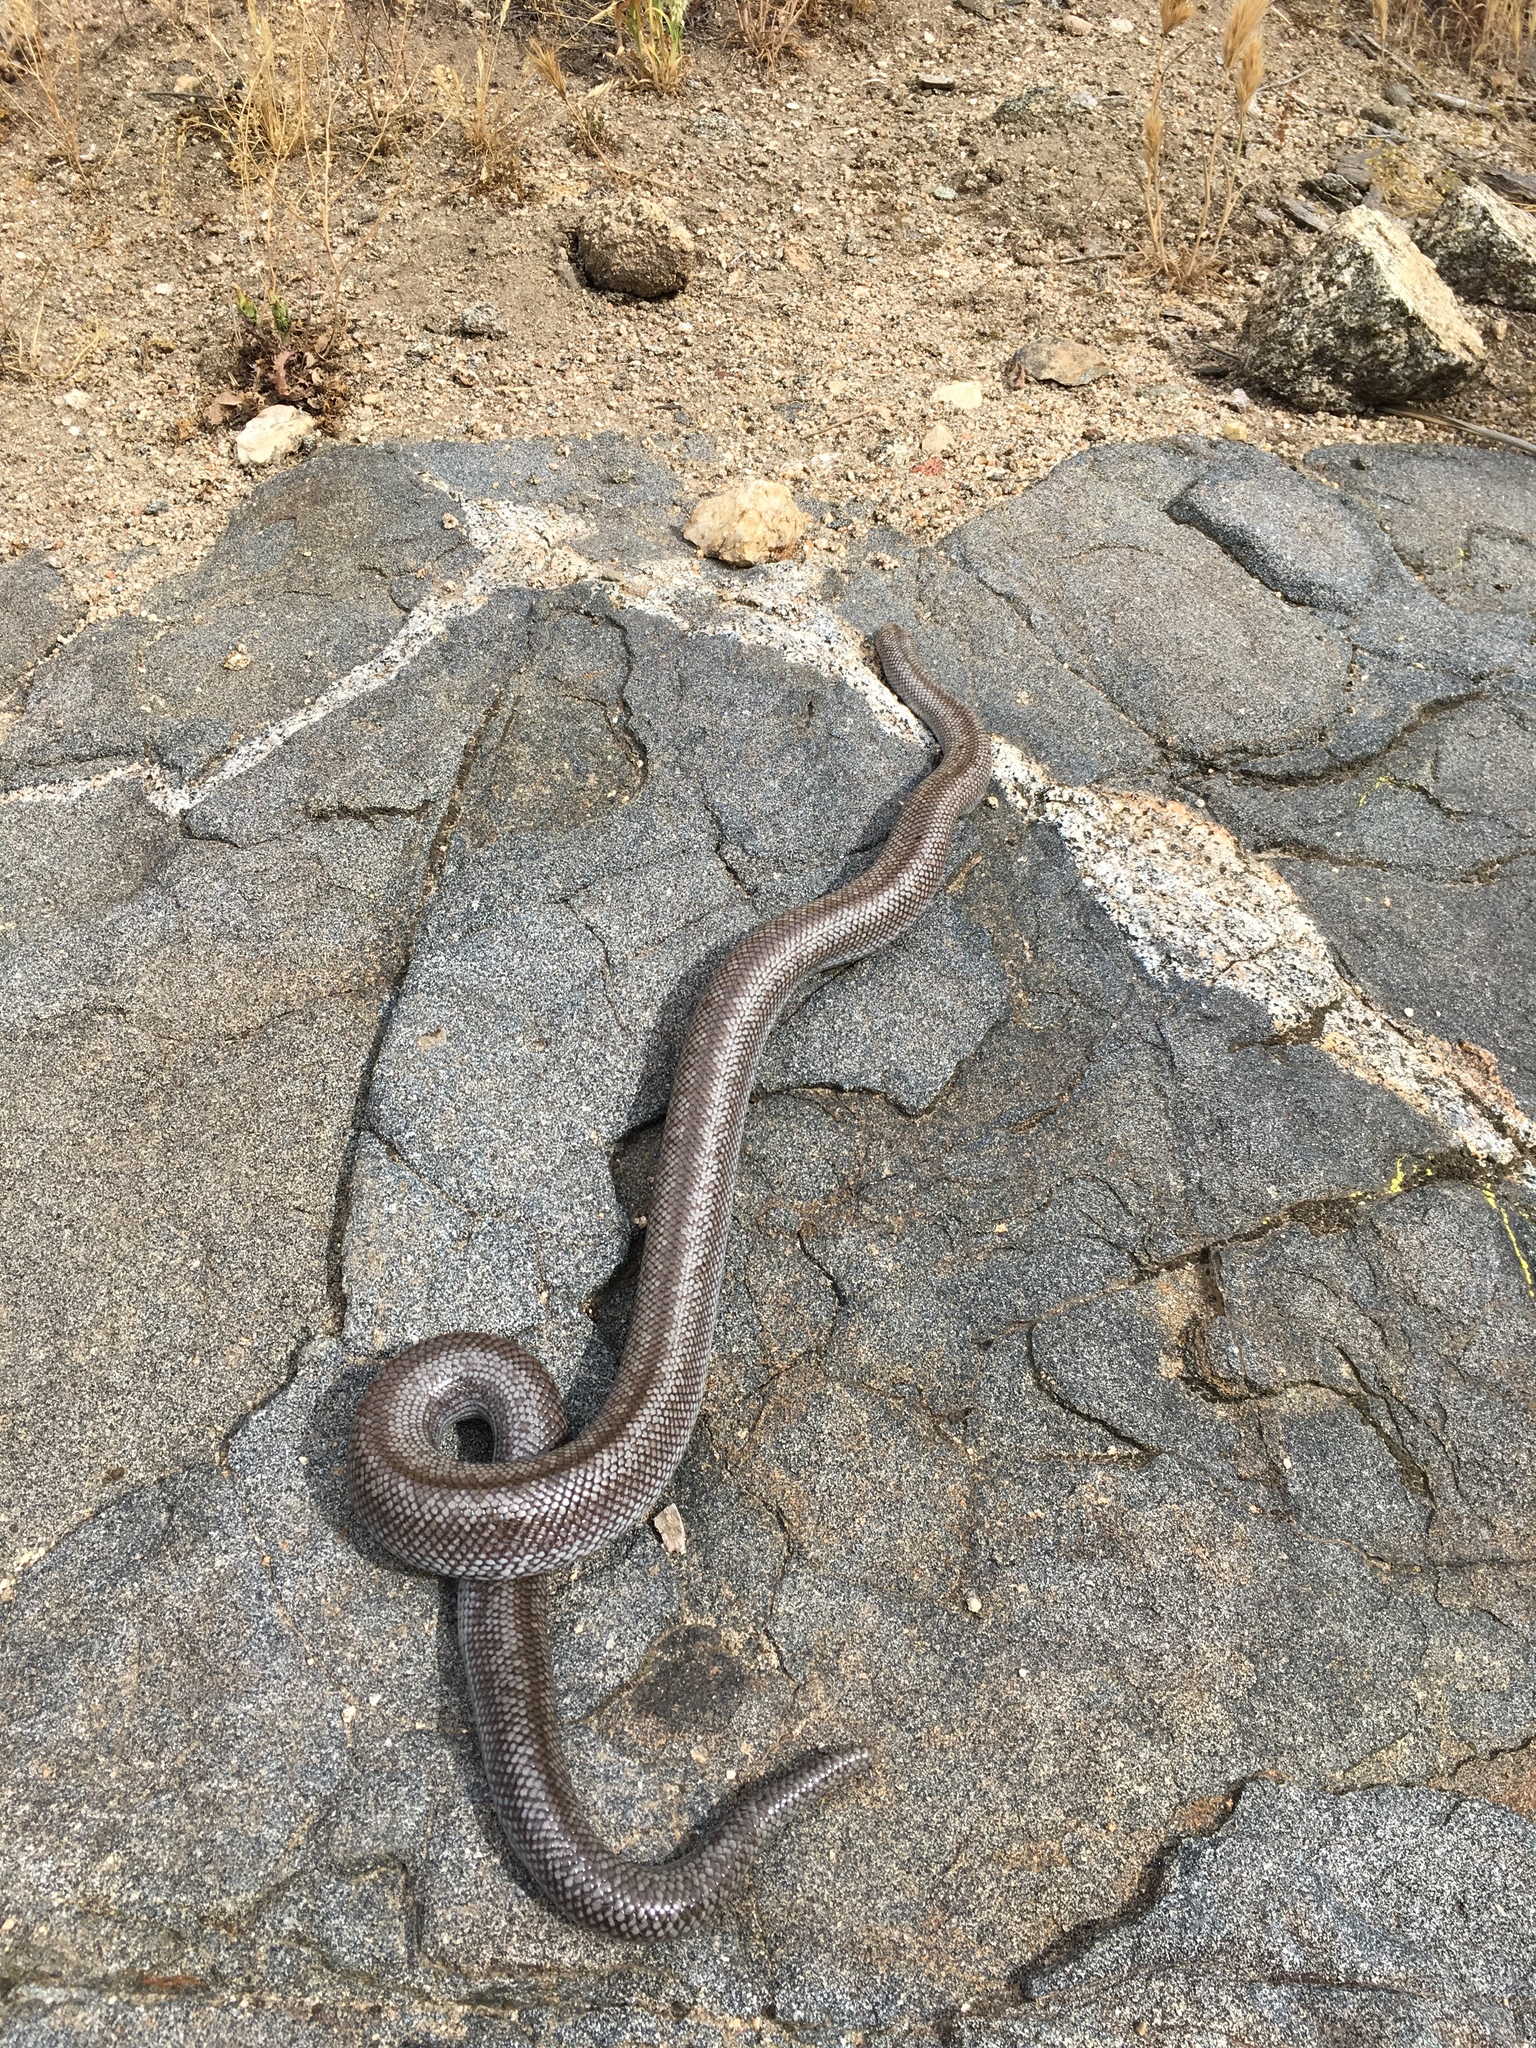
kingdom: Animalia
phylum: Chordata
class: Squamata
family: Boidae
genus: Lichanura
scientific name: Lichanura orcutti
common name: Northern three-lined boa
